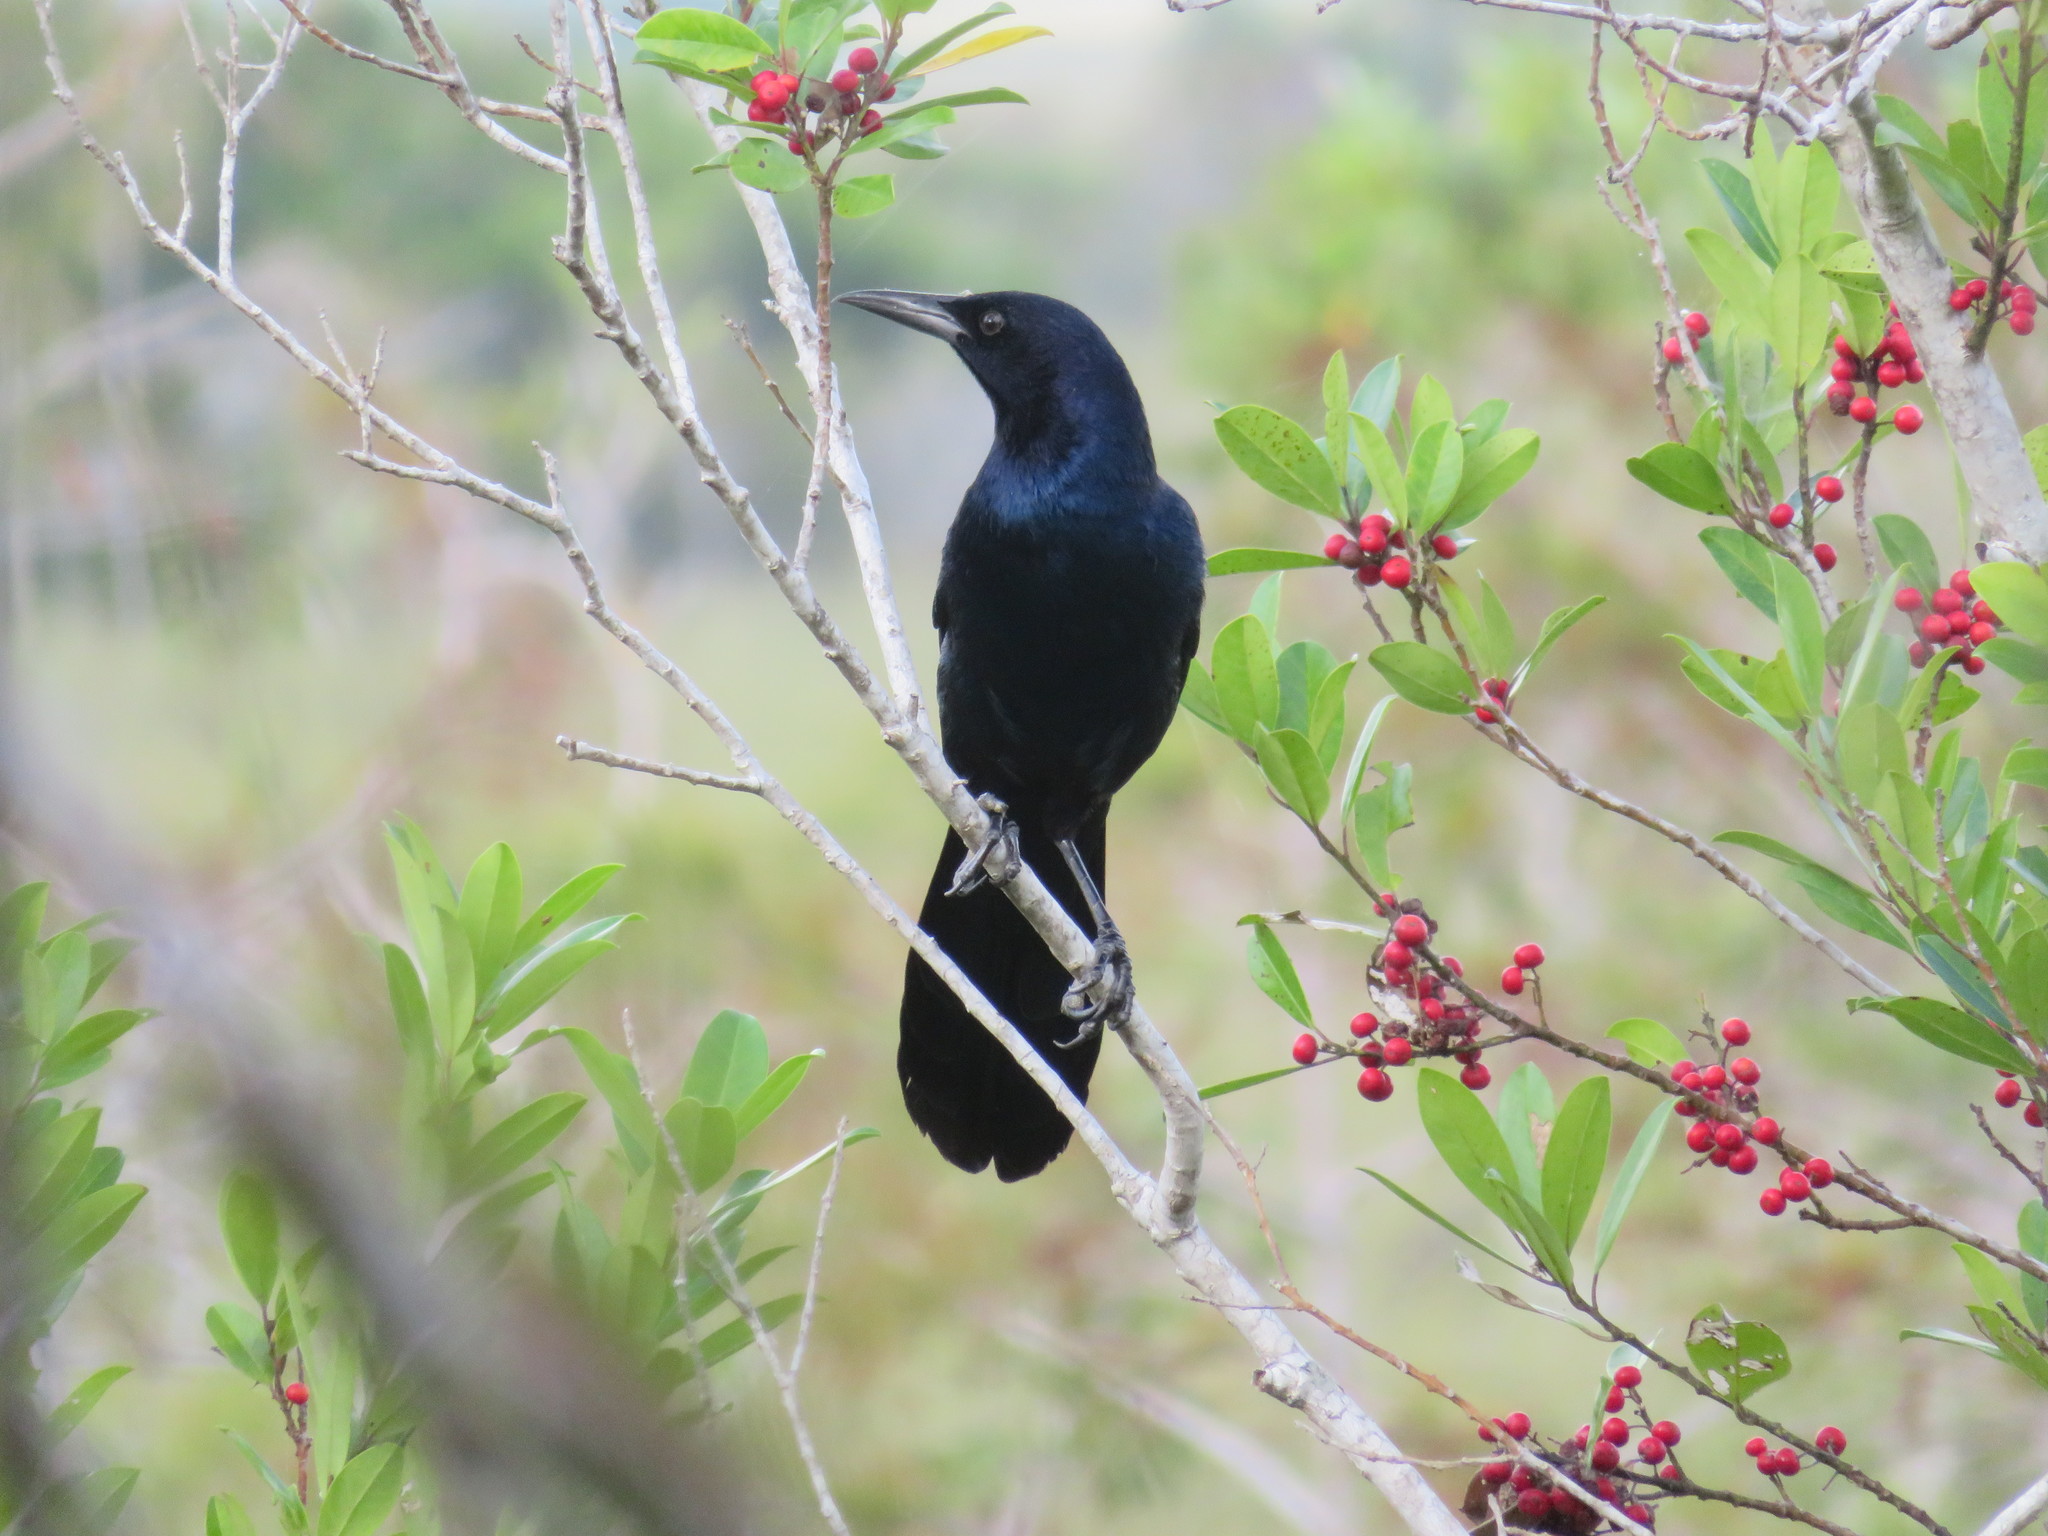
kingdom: Animalia
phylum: Chordata
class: Aves
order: Passeriformes
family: Icteridae
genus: Quiscalus
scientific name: Quiscalus major
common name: Boat-tailed grackle
